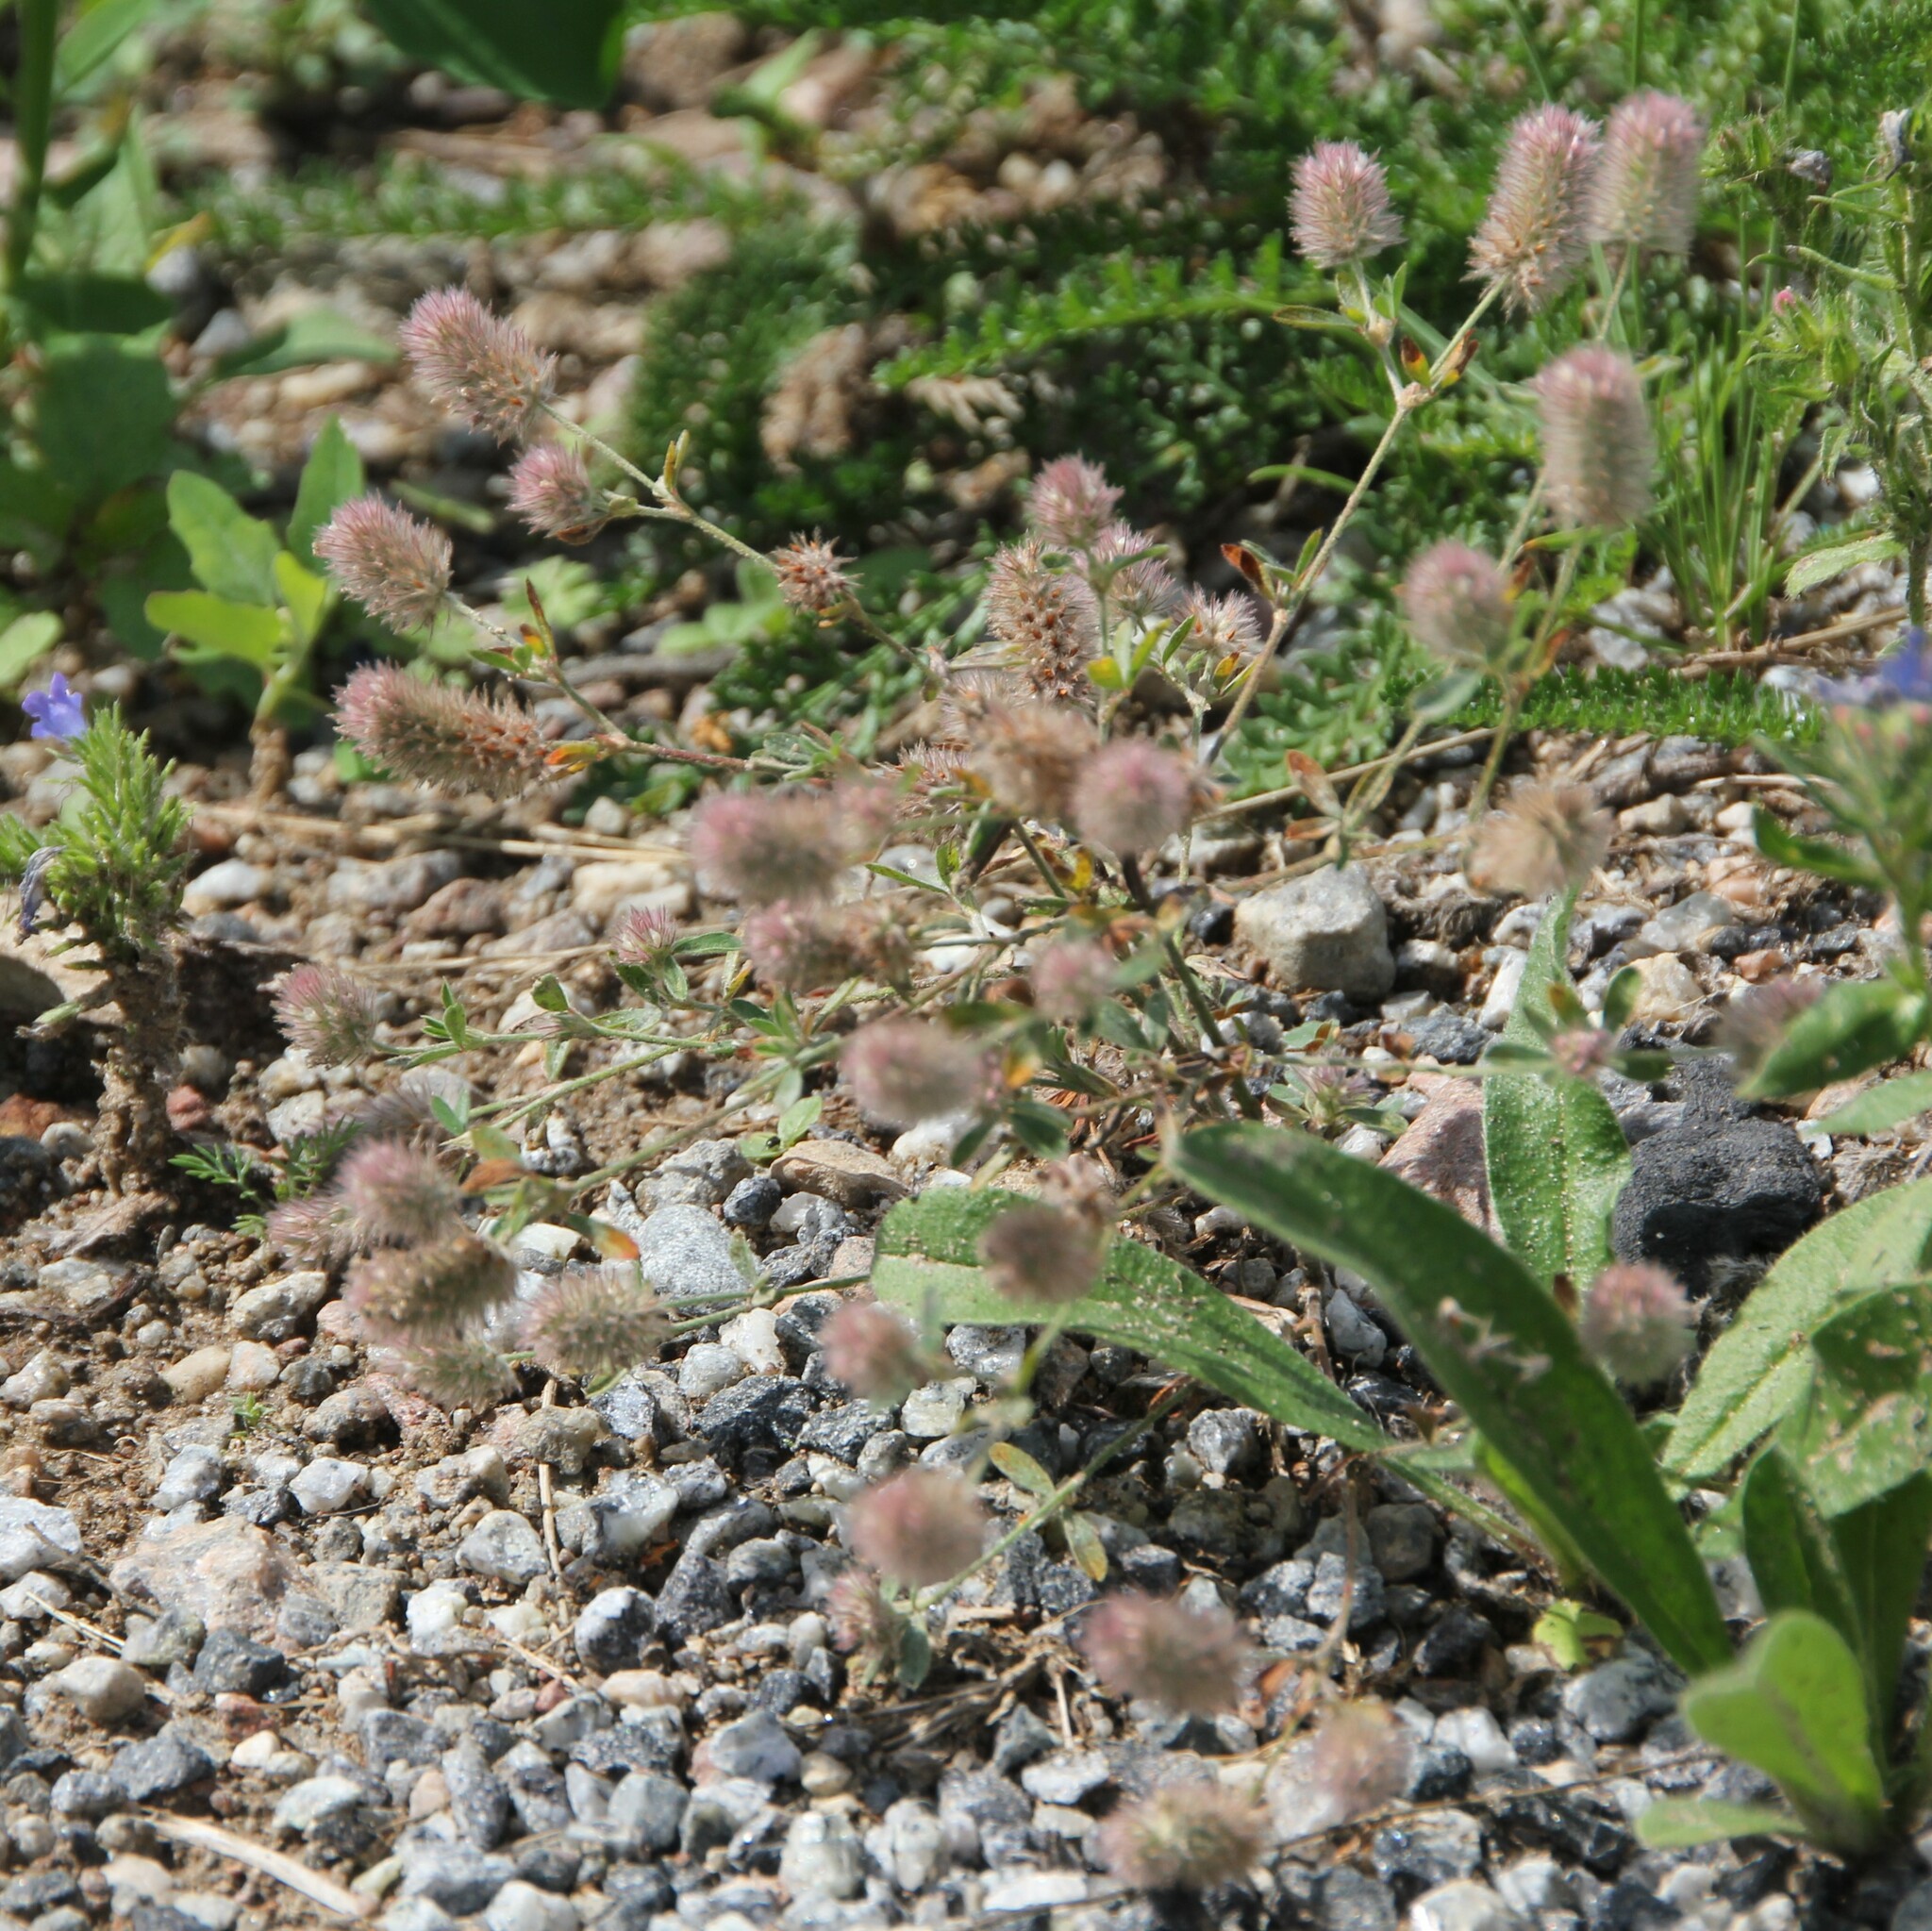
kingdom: Plantae
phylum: Tracheophyta
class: Magnoliopsida
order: Fabales
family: Fabaceae
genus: Trifolium
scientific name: Trifolium arvense
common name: Hare's-foot clover
